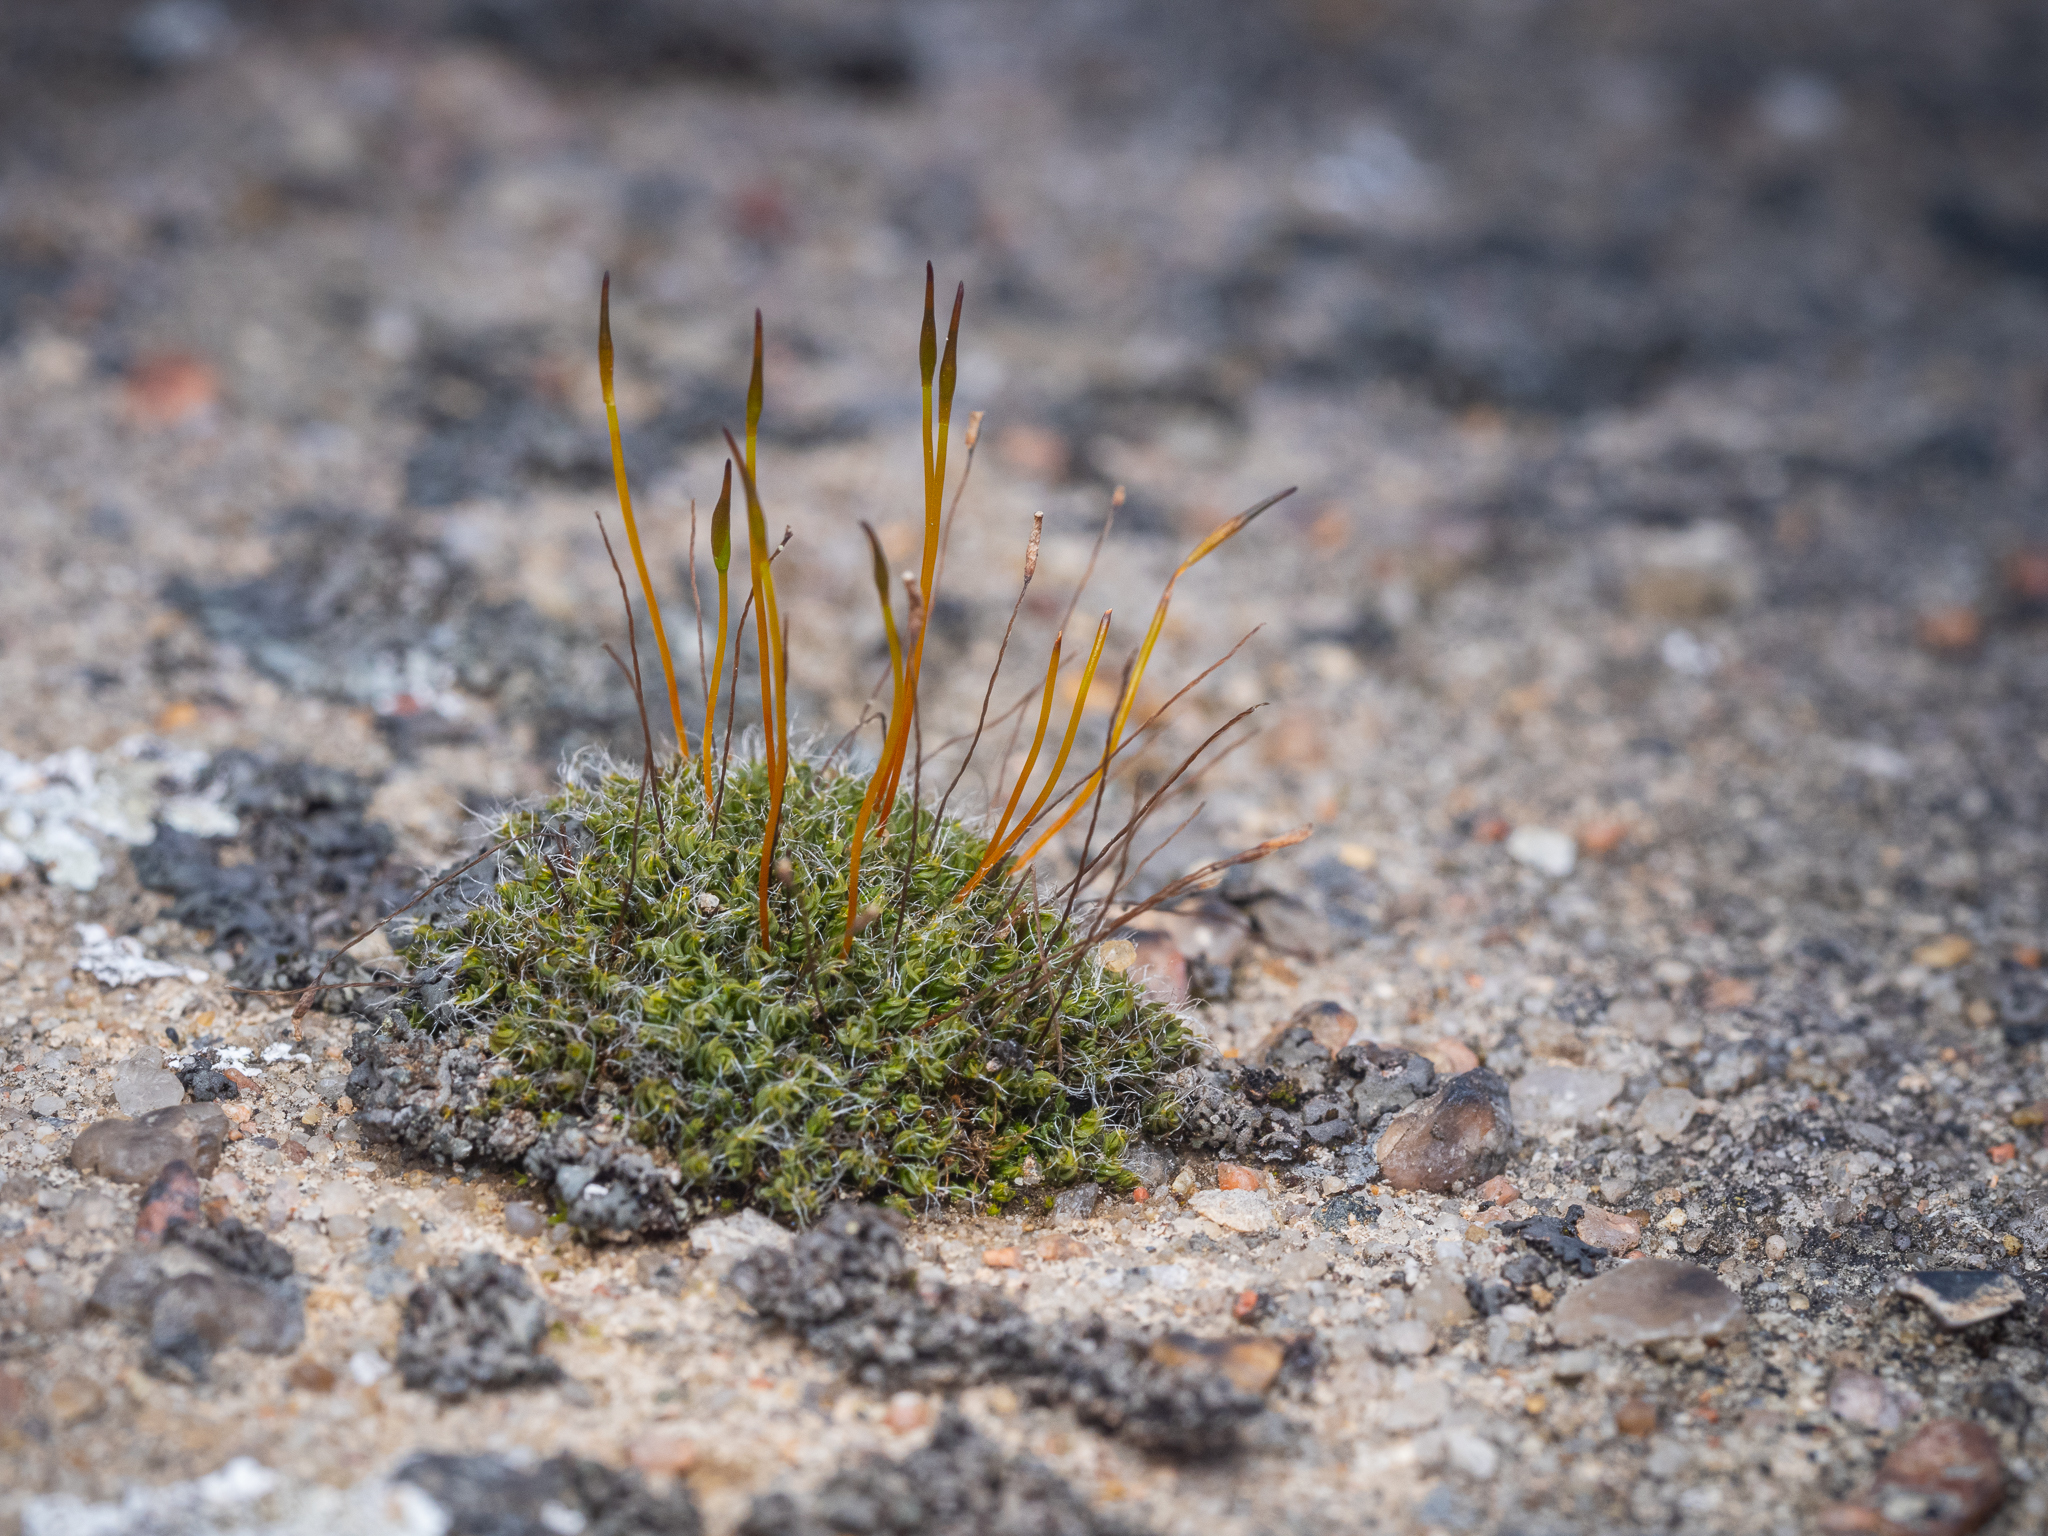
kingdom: Plantae
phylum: Bryophyta
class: Bryopsida
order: Pottiales
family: Pottiaceae
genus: Tortula
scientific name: Tortula muralis
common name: Wall screw-moss
